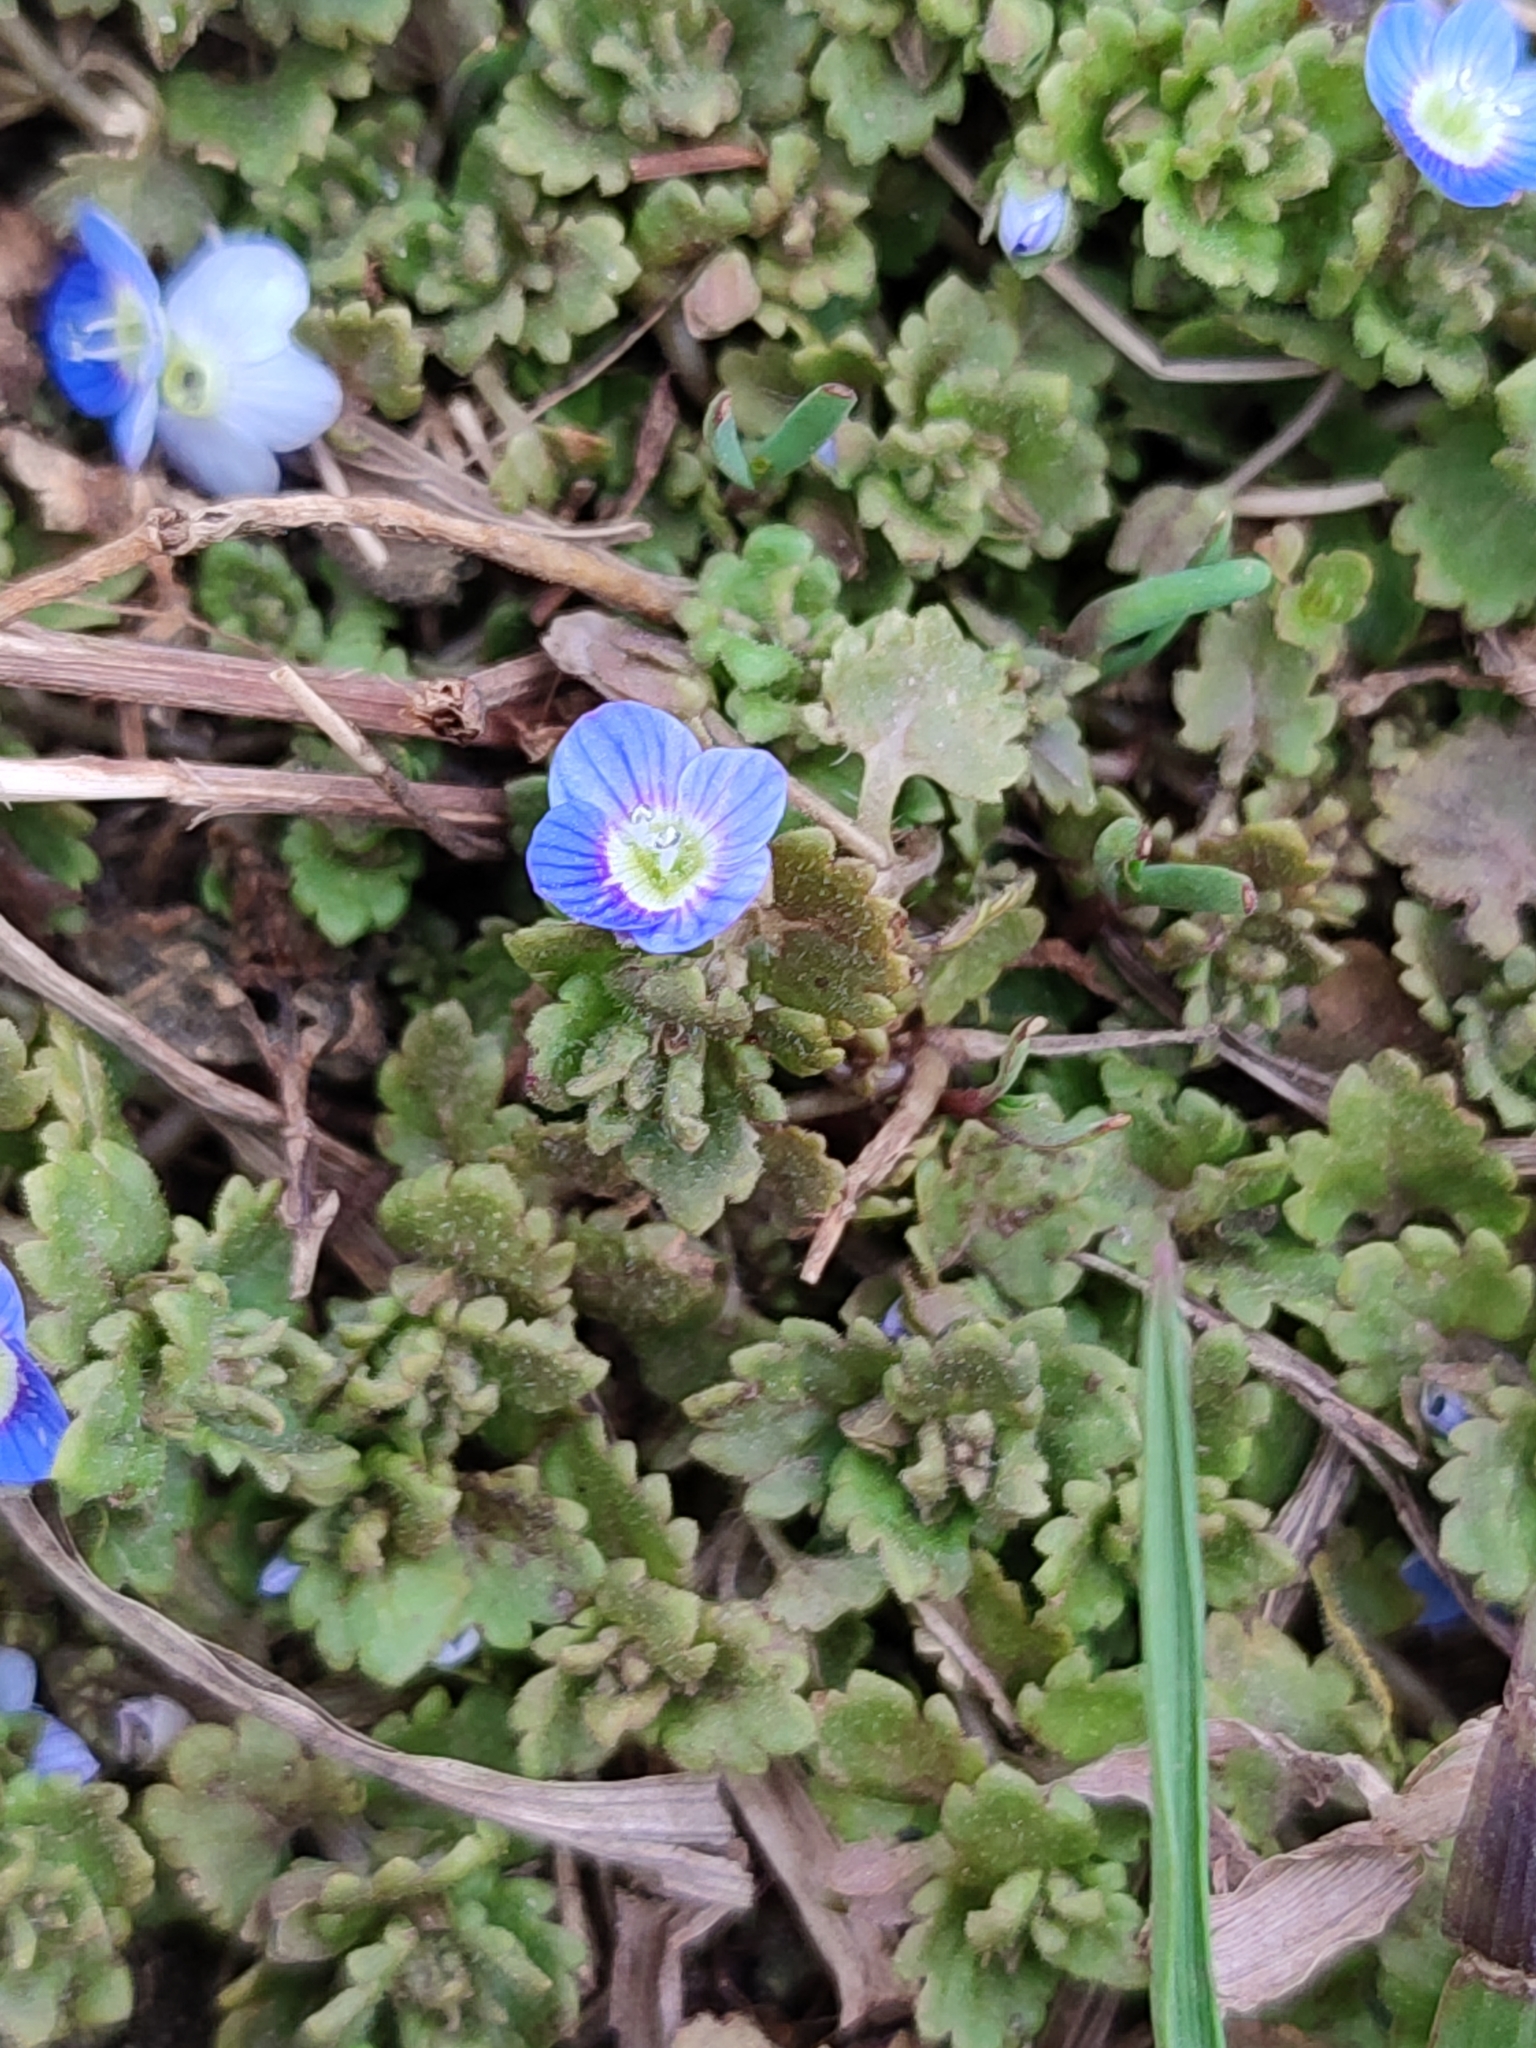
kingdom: Plantae
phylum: Tracheophyta
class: Magnoliopsida
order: Lamiales
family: Plantaginaceae
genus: Veronica
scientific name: Veronica polita
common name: Grey field-speedwell
